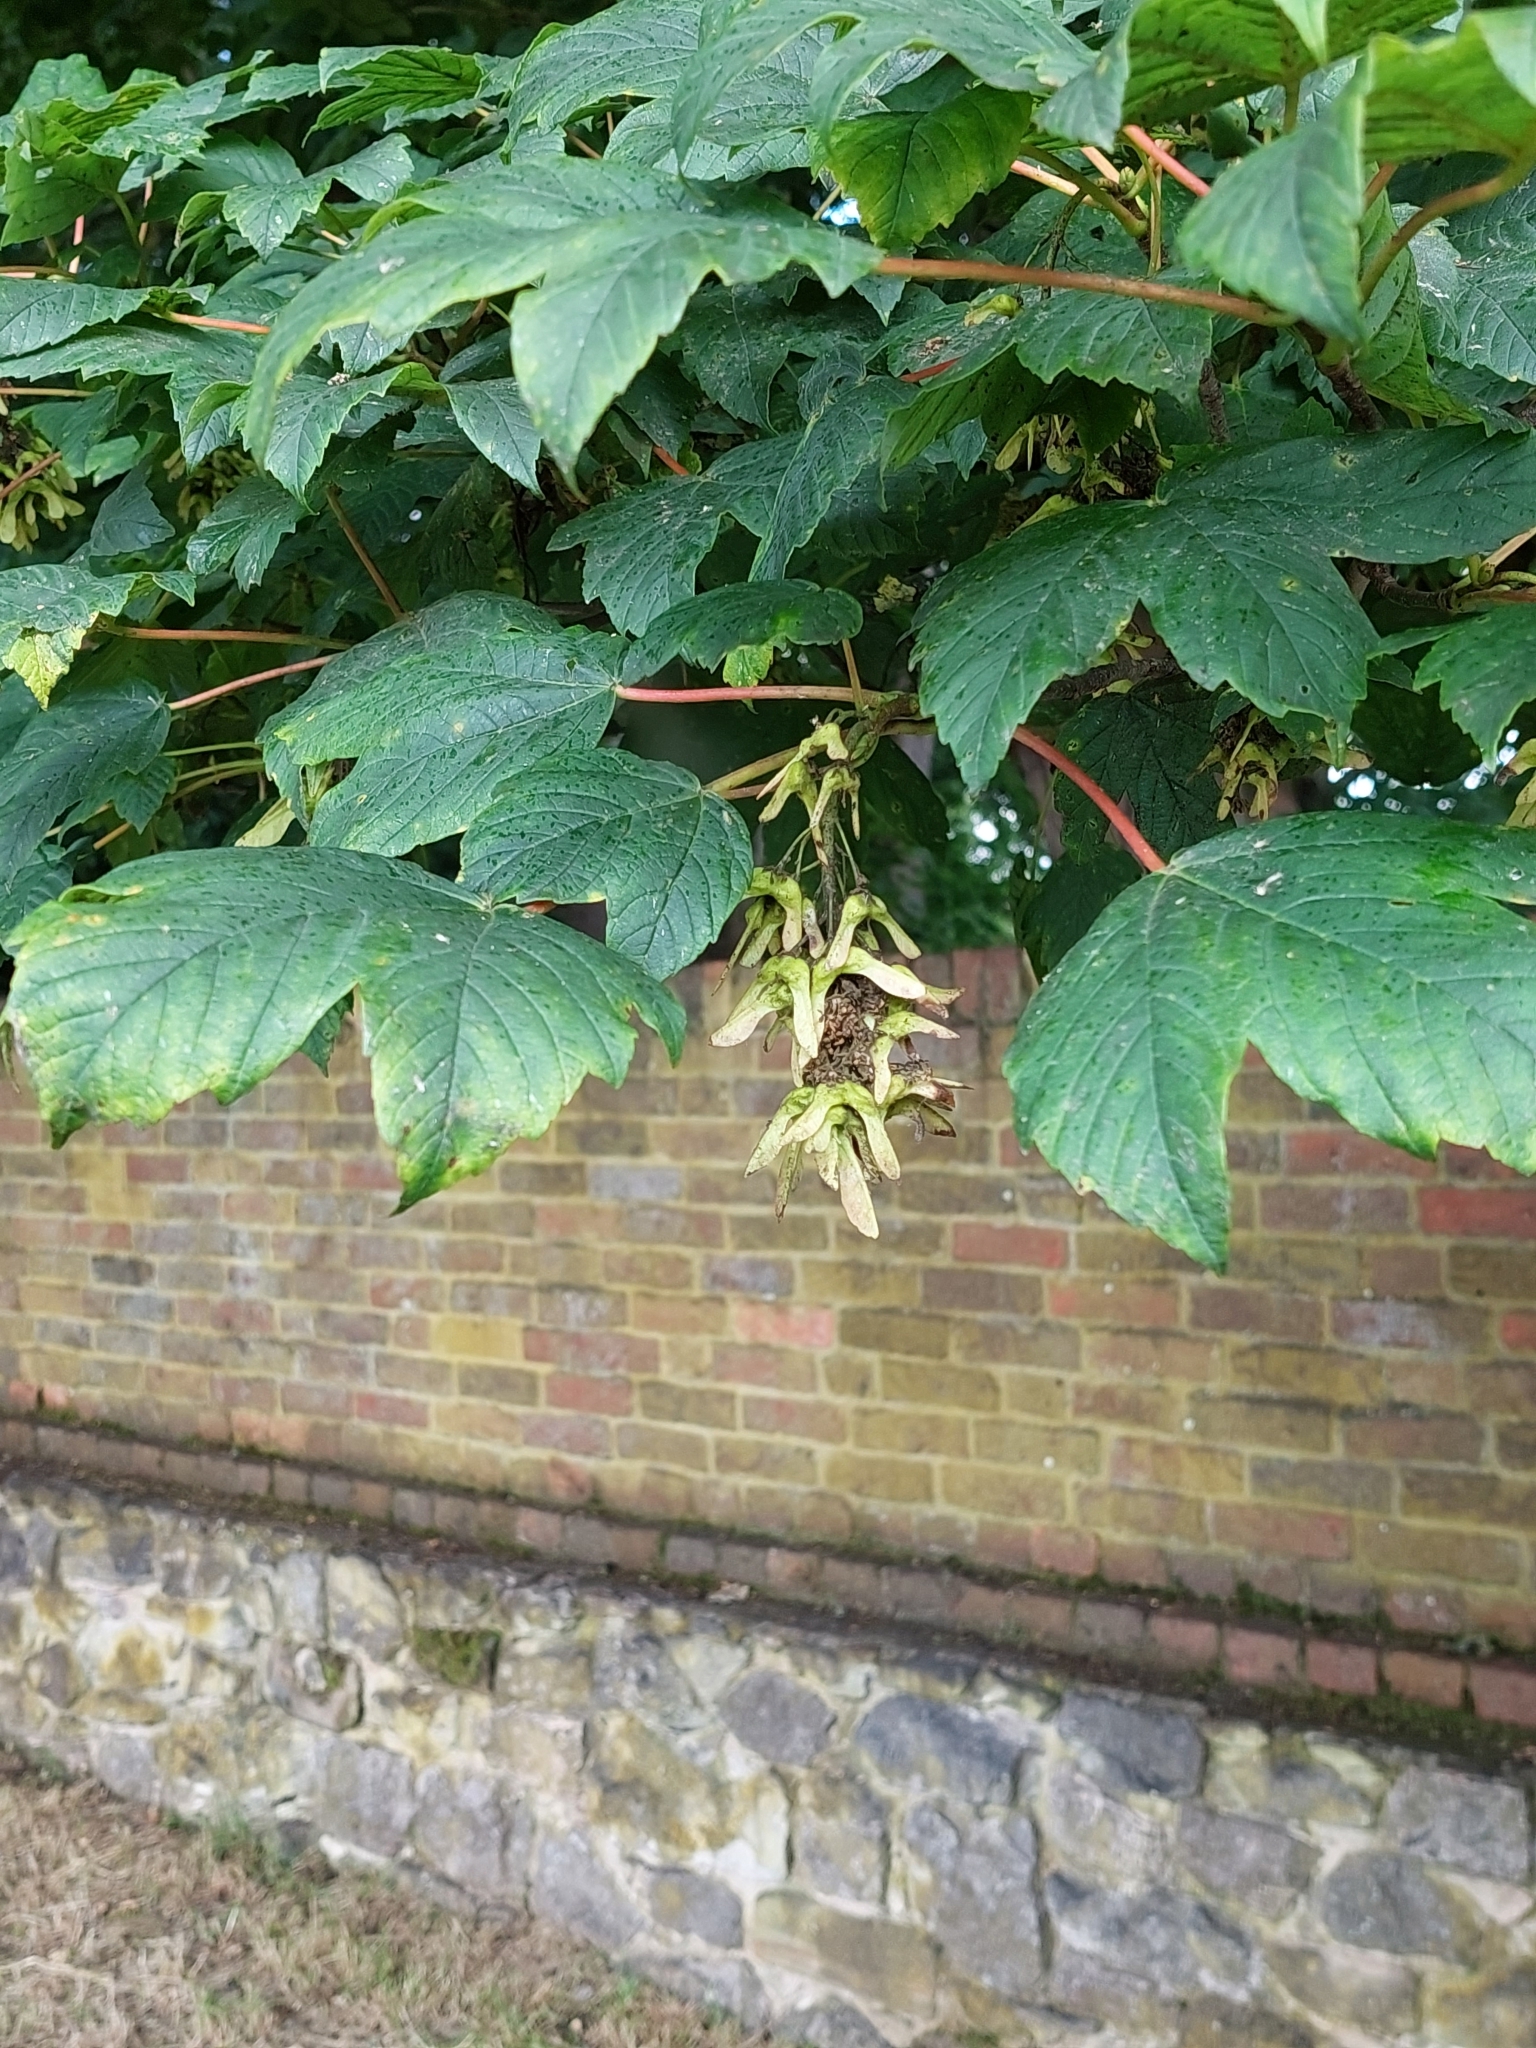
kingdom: Plantae
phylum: Tracheophyta
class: Magnoliopsida
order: Sapindales
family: Sapindaceae
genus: Acer
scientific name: Acer pseudoplatanus
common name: Sycamore
